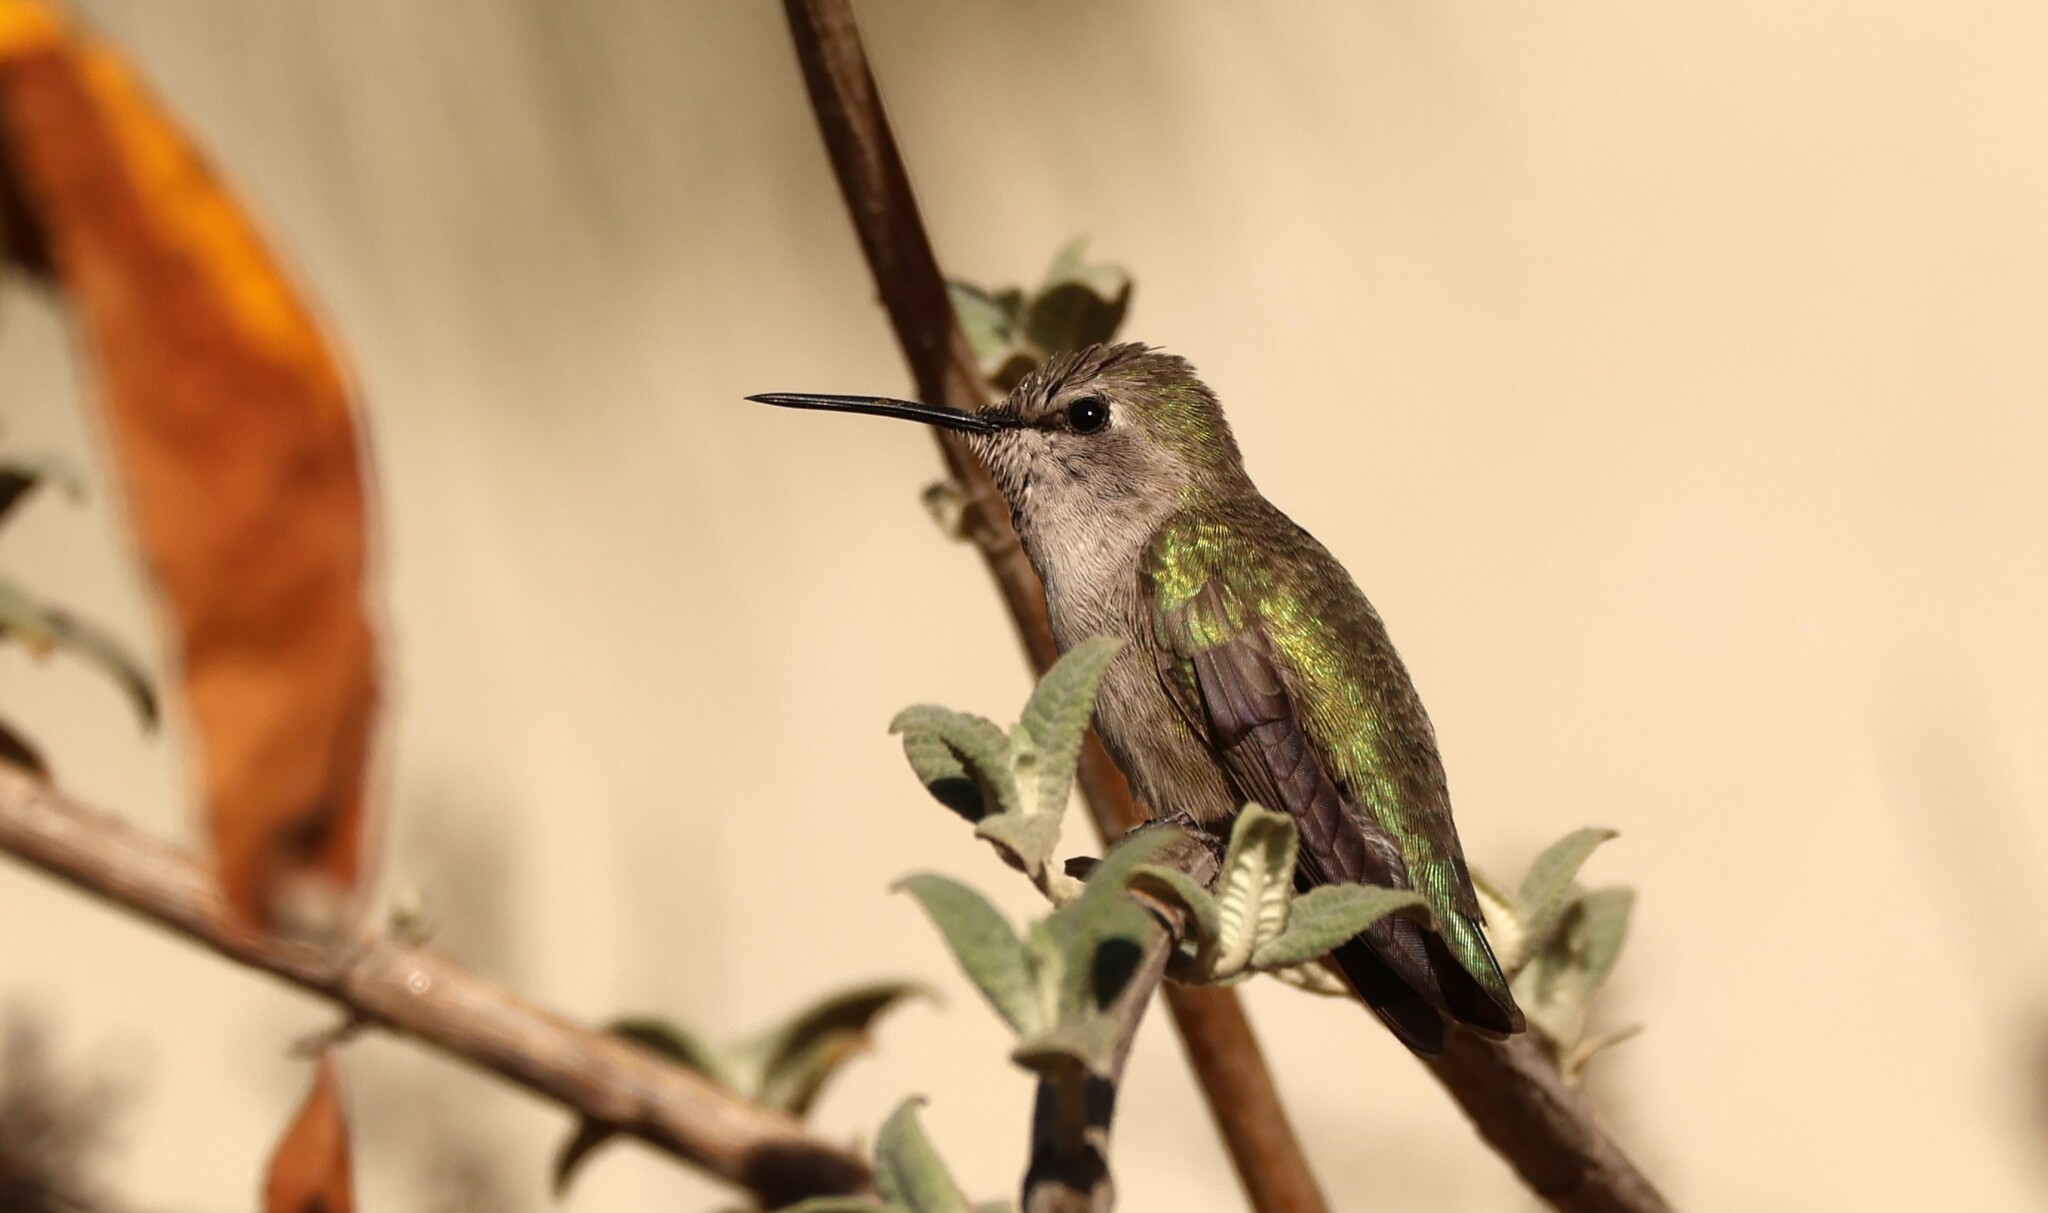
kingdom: Animalia
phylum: Chordata
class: Aves
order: Apodiformes
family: Trochilidae
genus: Calypte
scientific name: Calypte anna
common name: Anna's hummingbird
